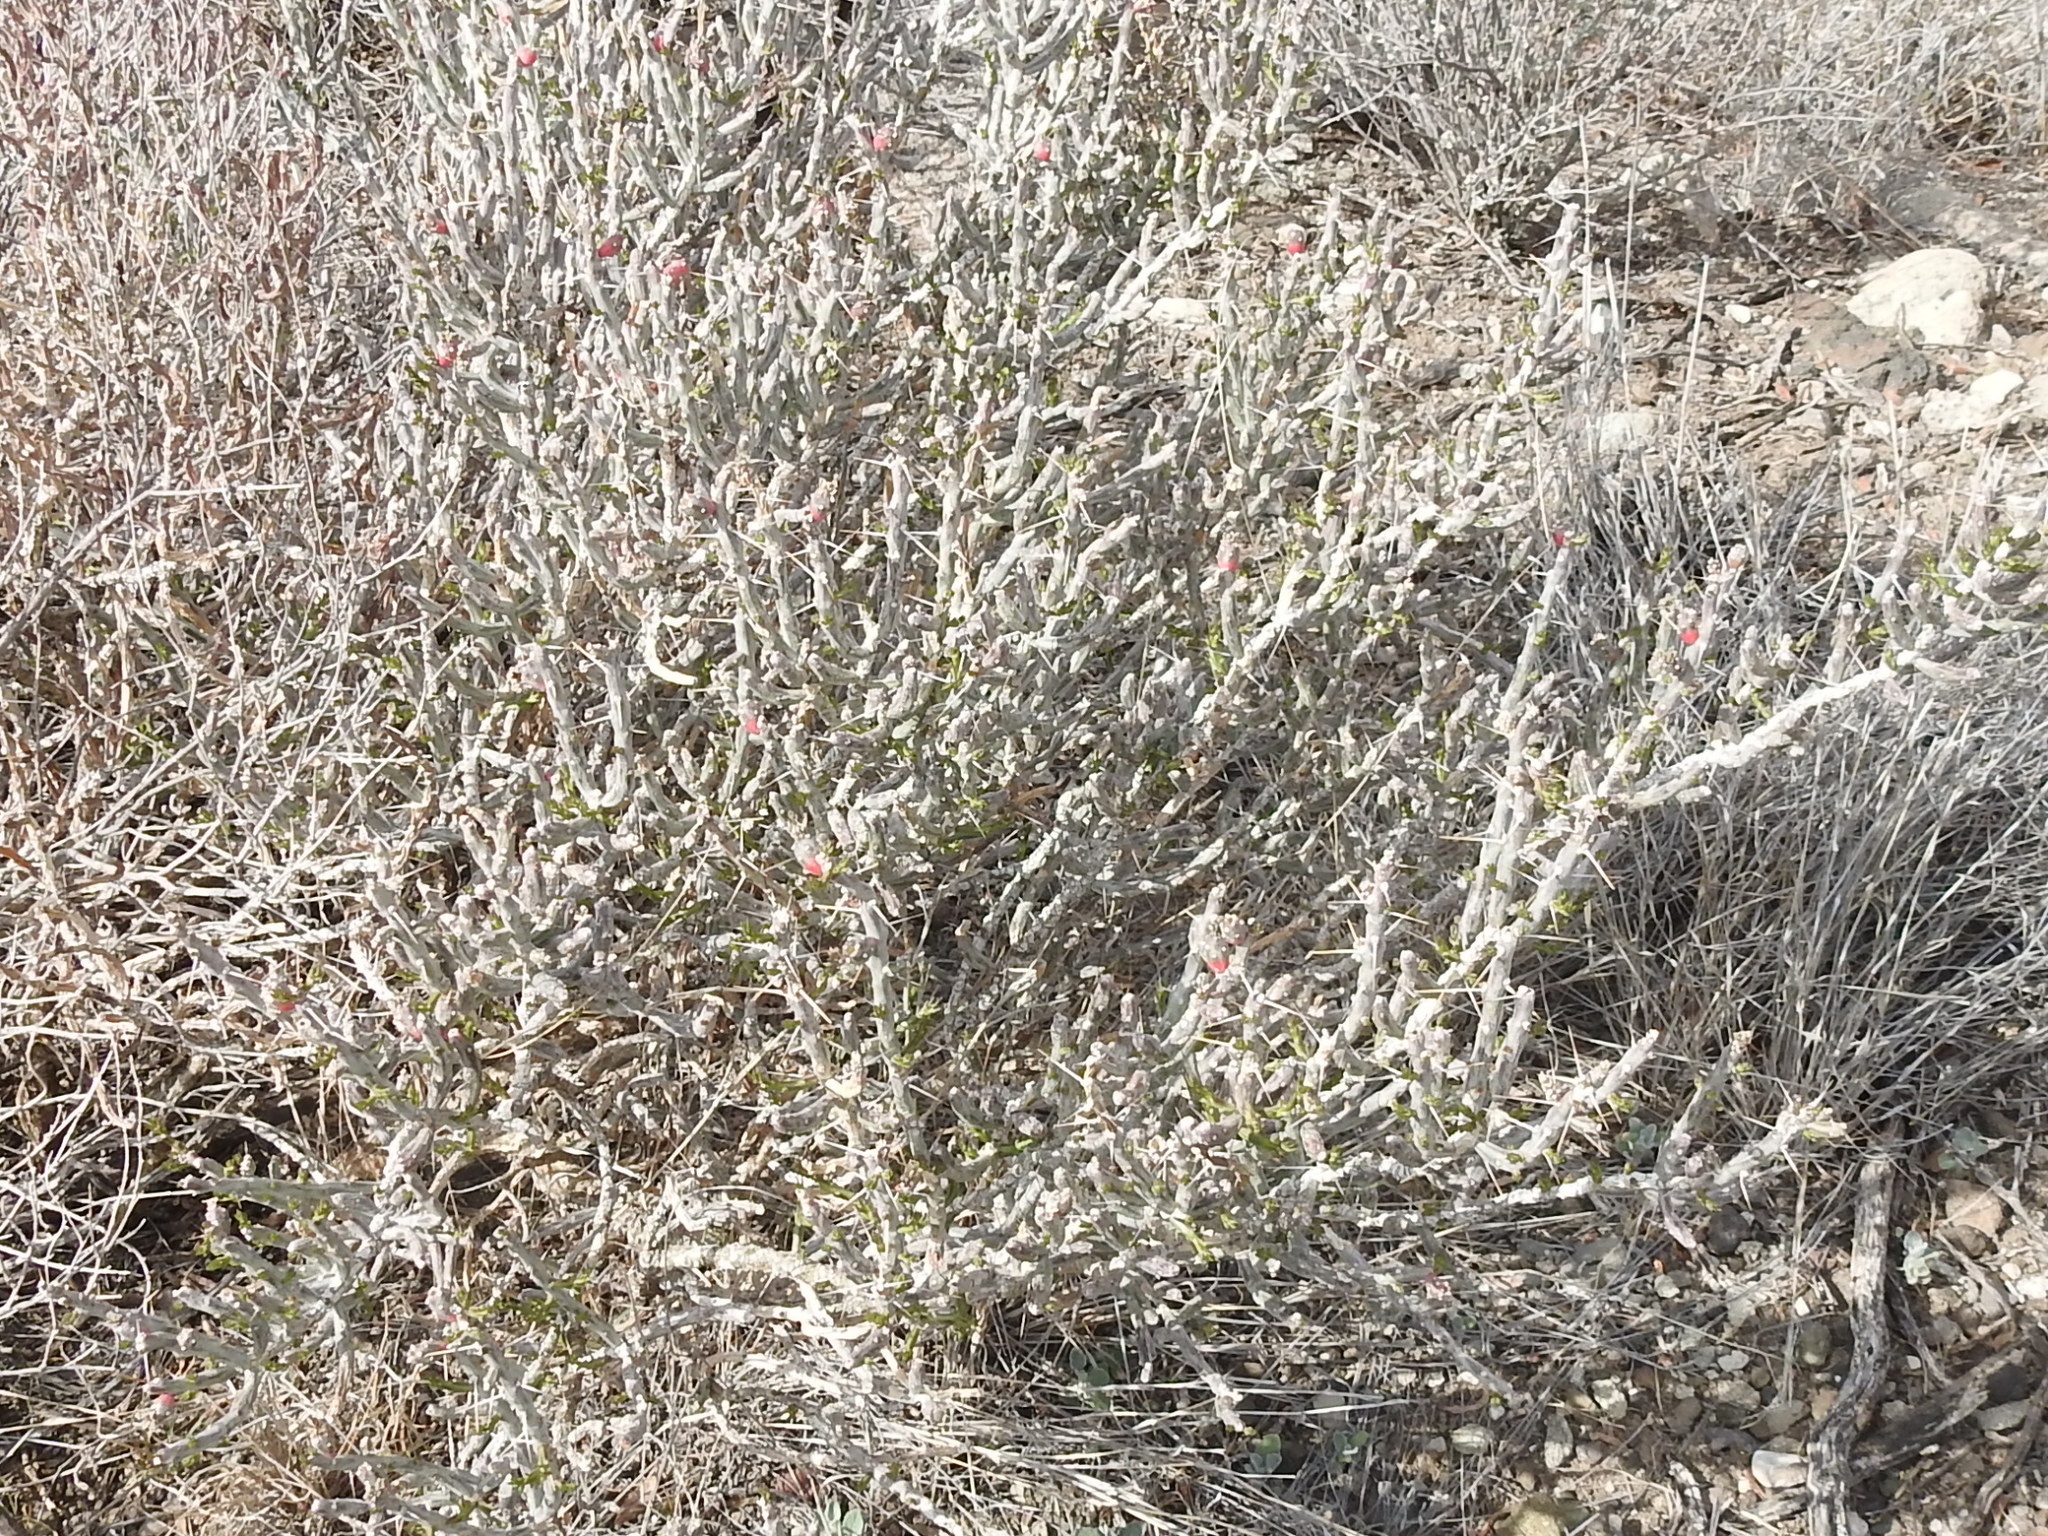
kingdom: Plantae
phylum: Tracheophyta
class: Magnoliopsida
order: Caryophyllales
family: Cactaceae
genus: Cylindropuntia
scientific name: Cylindropuntia leptocaulis
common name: Christmas cactus
